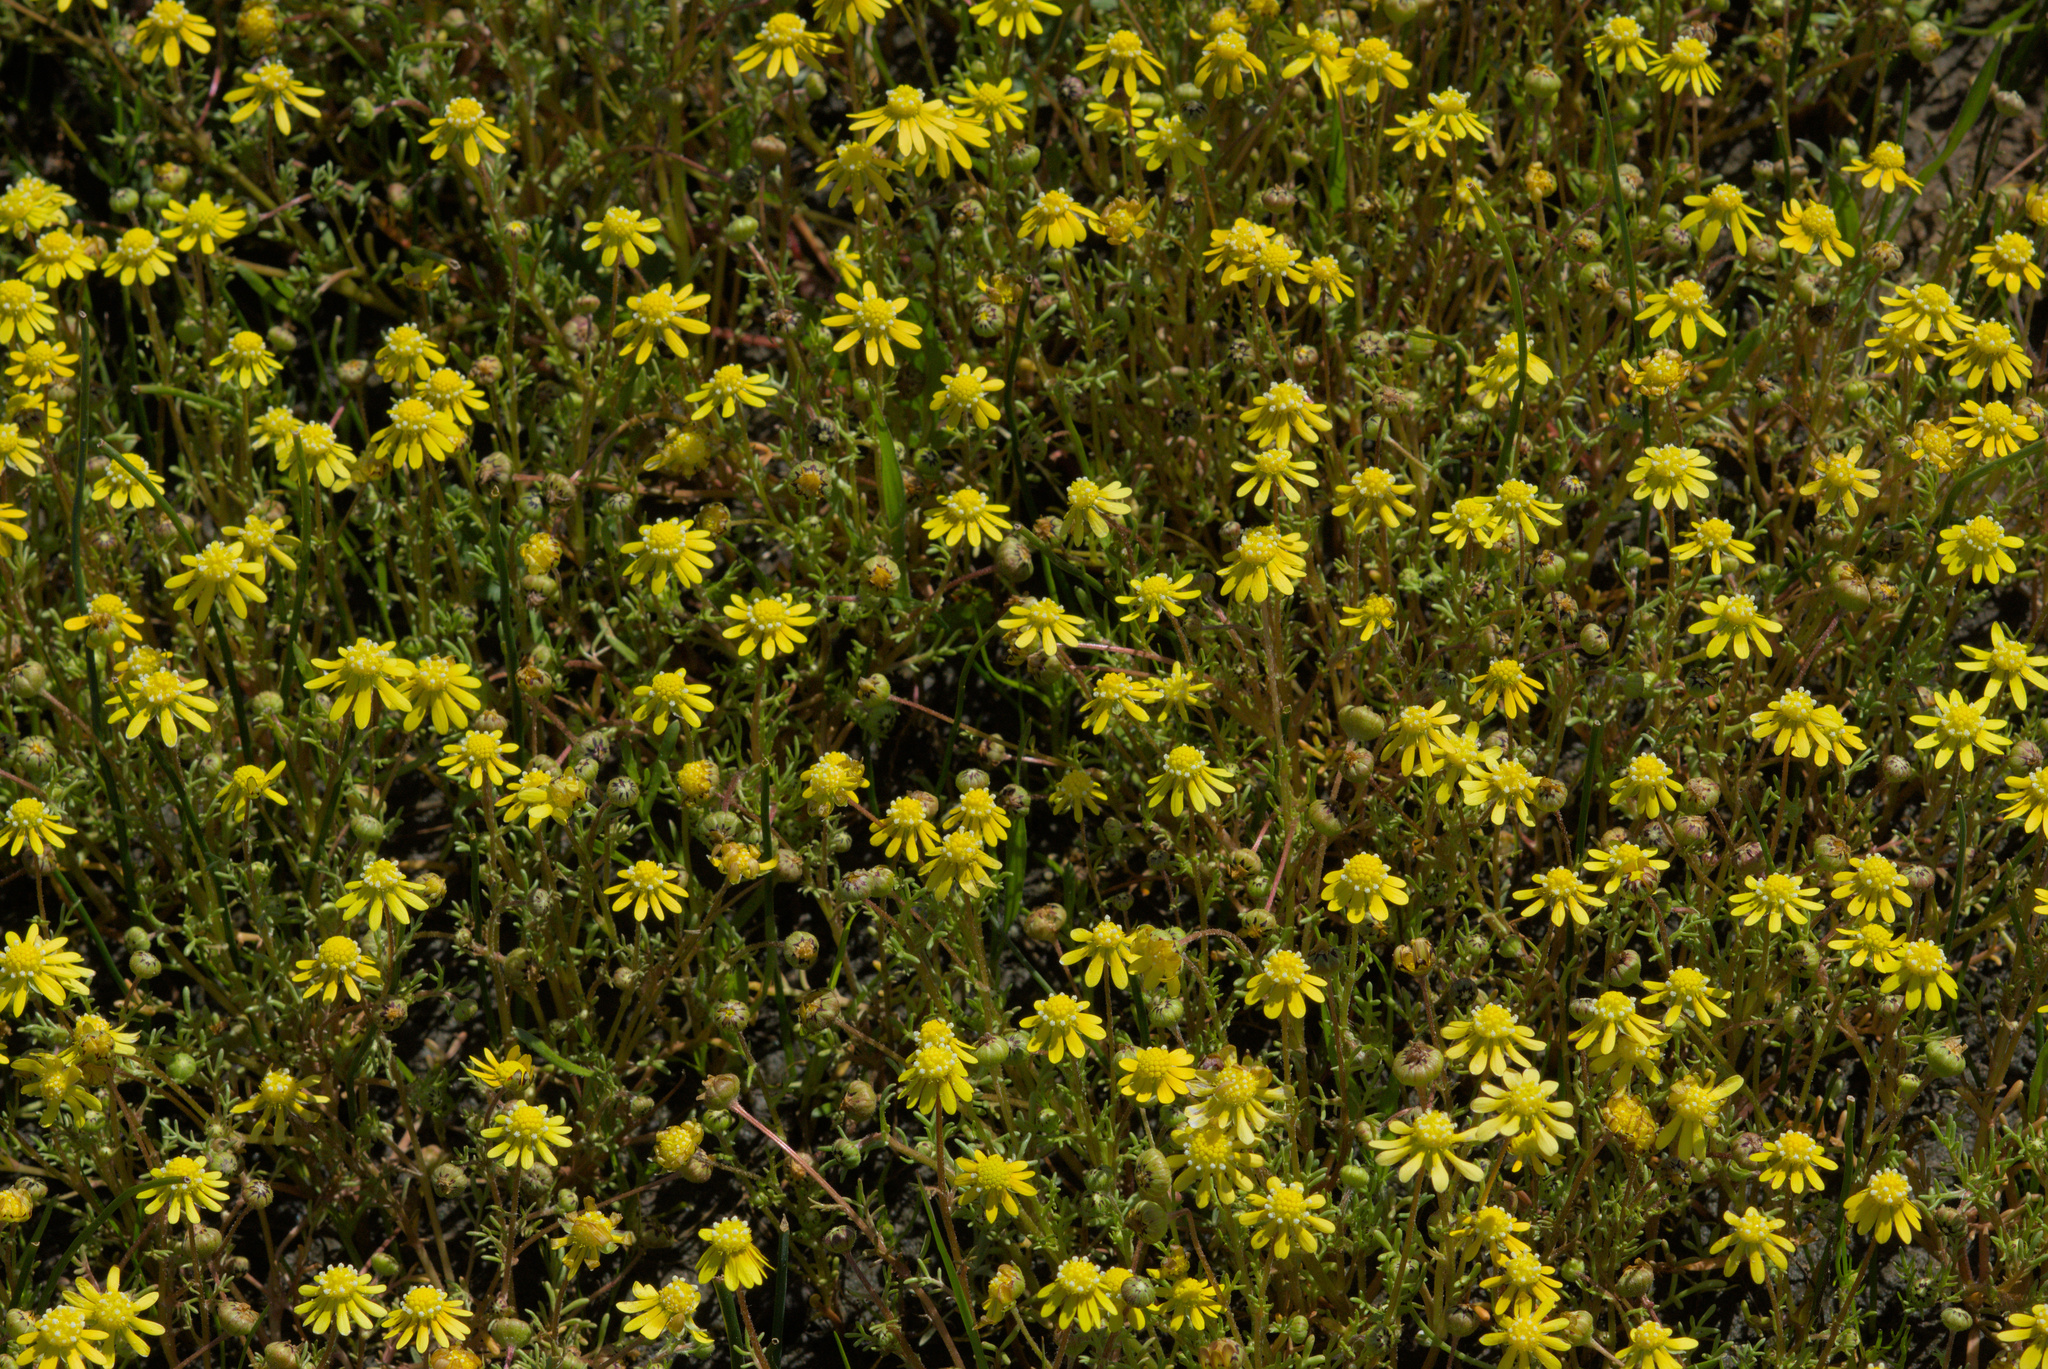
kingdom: Plantae
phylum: Tracheophyta
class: Magnoliopsida
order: Asterales
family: Asteraceae
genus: Blennosperma
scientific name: Blennosperma nanum
